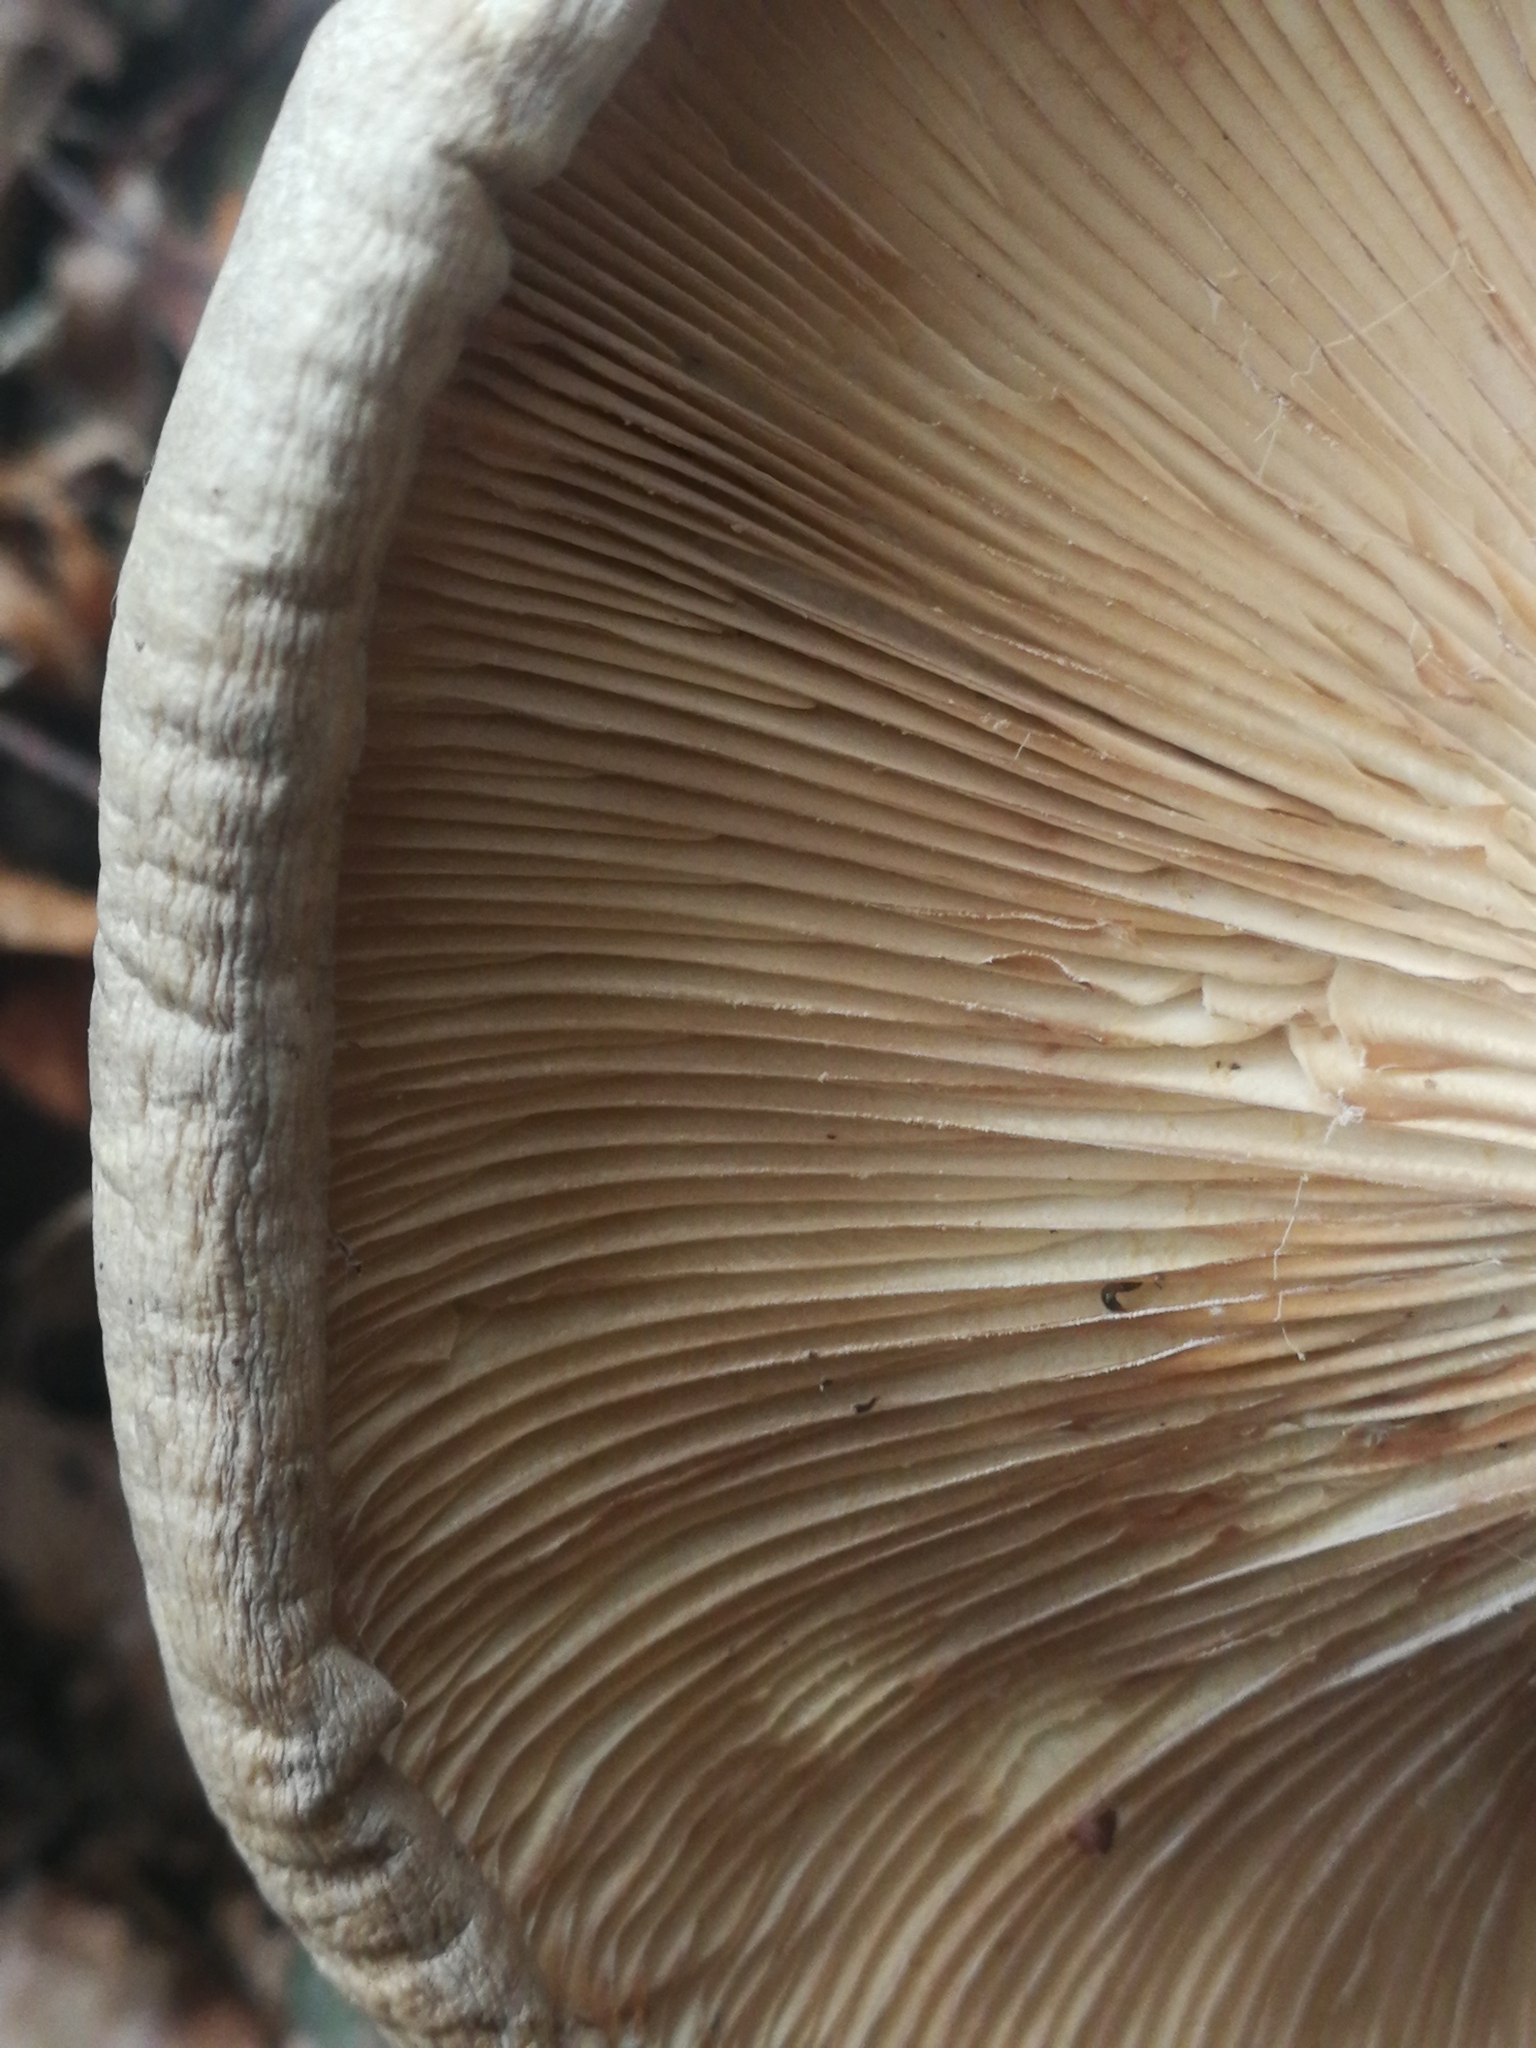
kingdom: Fungi
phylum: Basidiomycota
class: Agaricomycetes
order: Agaricales
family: Tricholomataceae
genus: Clitocybe
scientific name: Clitocybe nebularis
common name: Clouded agaric
